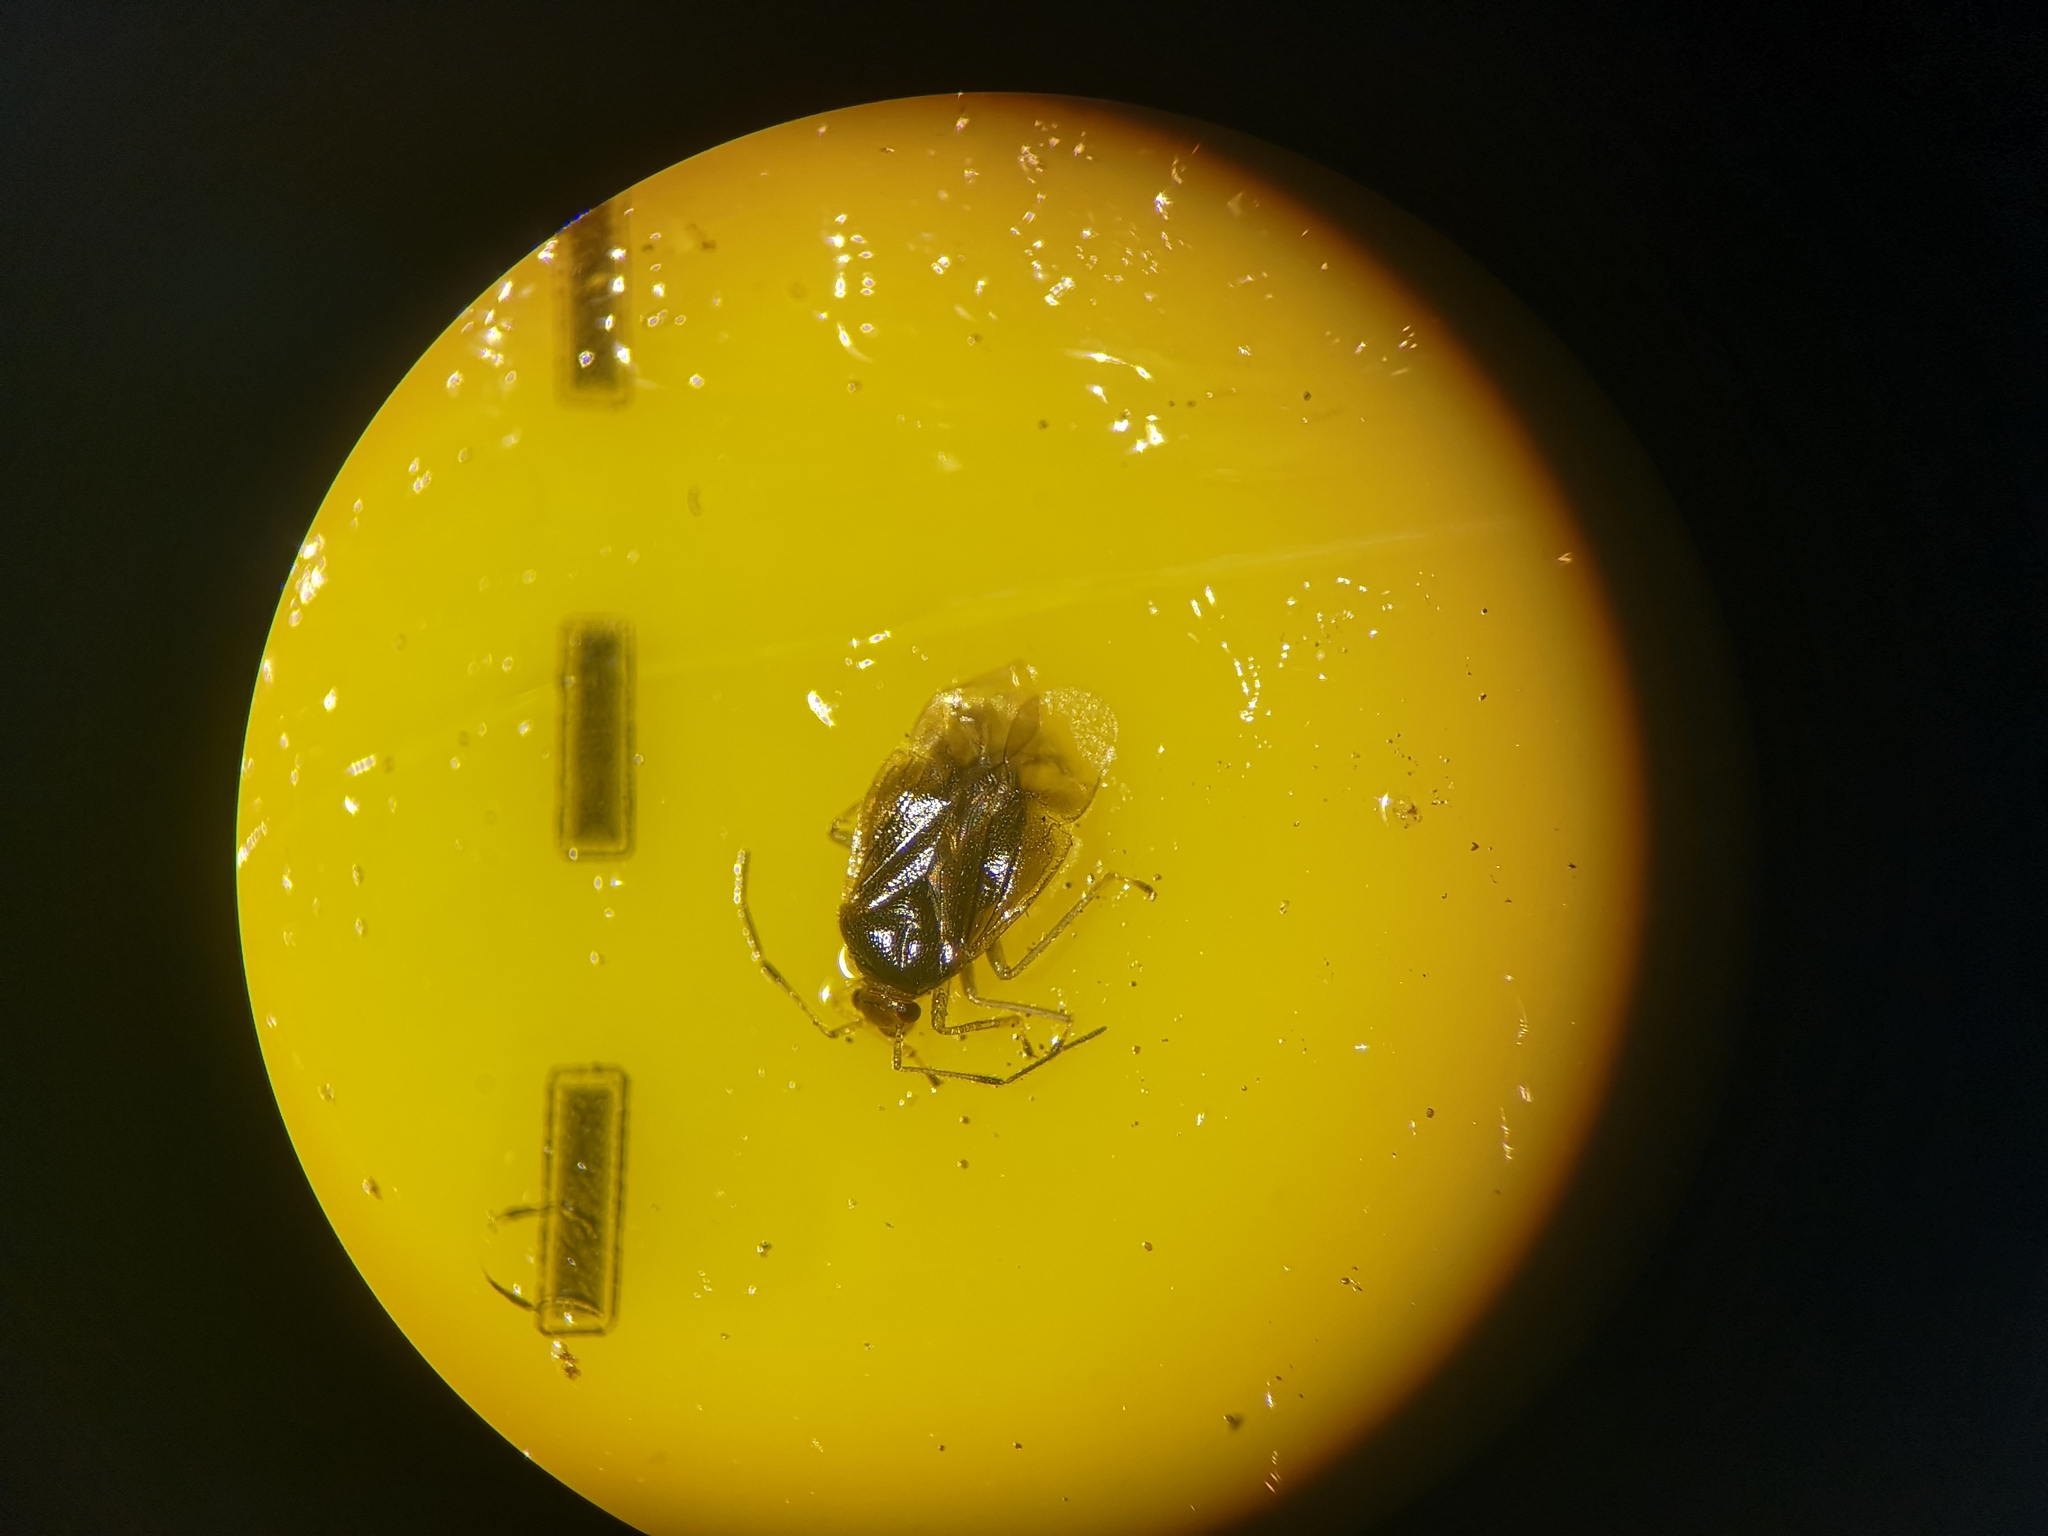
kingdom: Animalia
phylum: Arthropoda
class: Insecta
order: Hemiptera
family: Miridae
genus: Deraeocoris
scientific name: Deraeocoris lutescens
